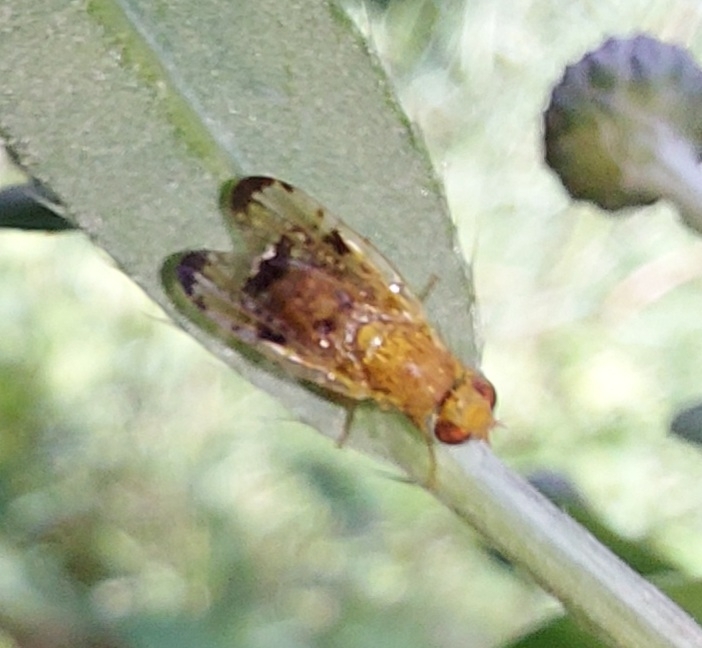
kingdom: Animalia
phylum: Arthropoda
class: Insecta
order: Diptera
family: Tephritidae
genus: Xyphosia
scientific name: Xyphosia miliaria
